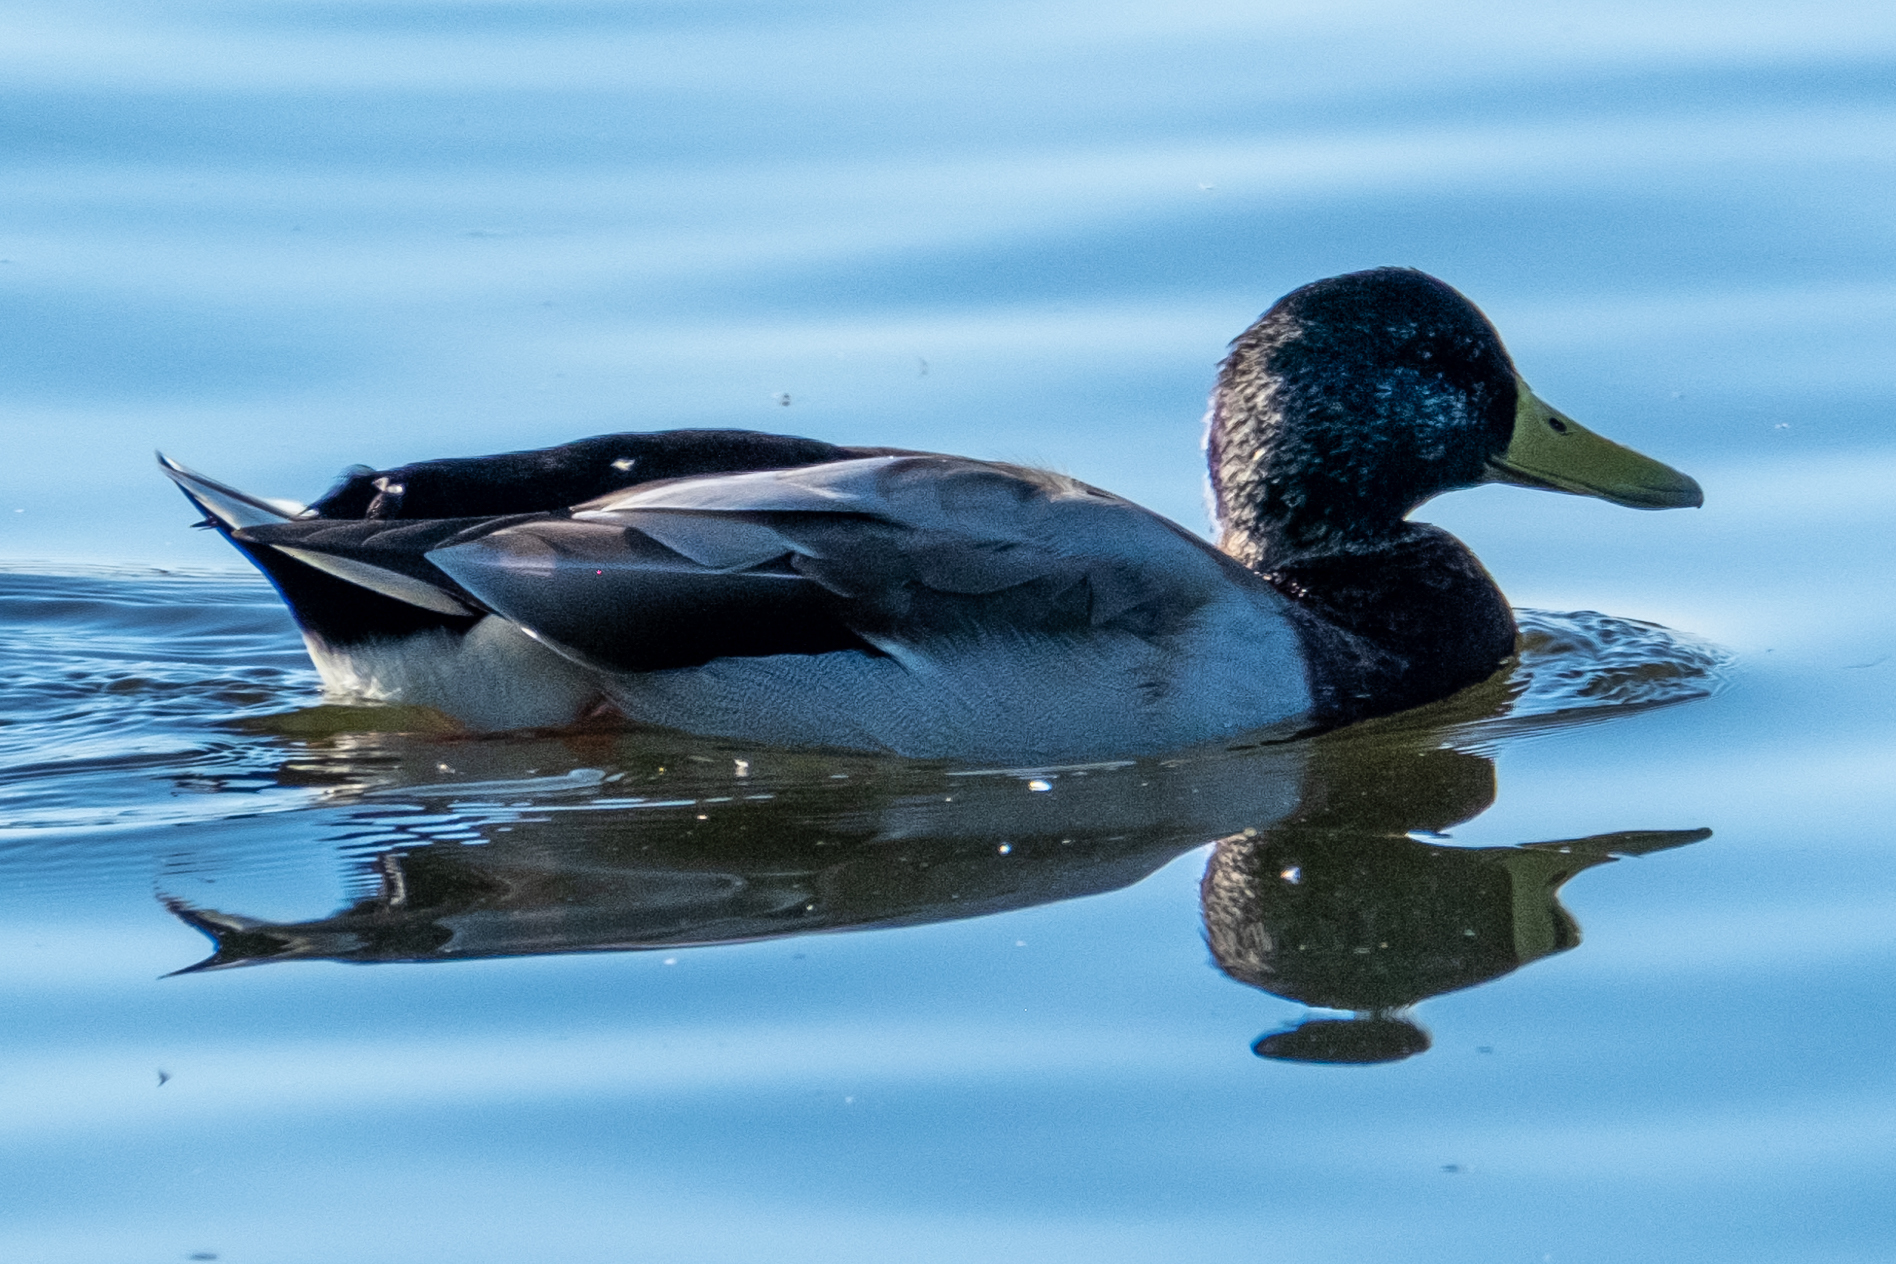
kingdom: Animalia
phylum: Chordata
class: Aves
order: Anseriformes
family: Anatidae
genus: Anas
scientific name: Anas platyrhynchos
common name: Mallard
